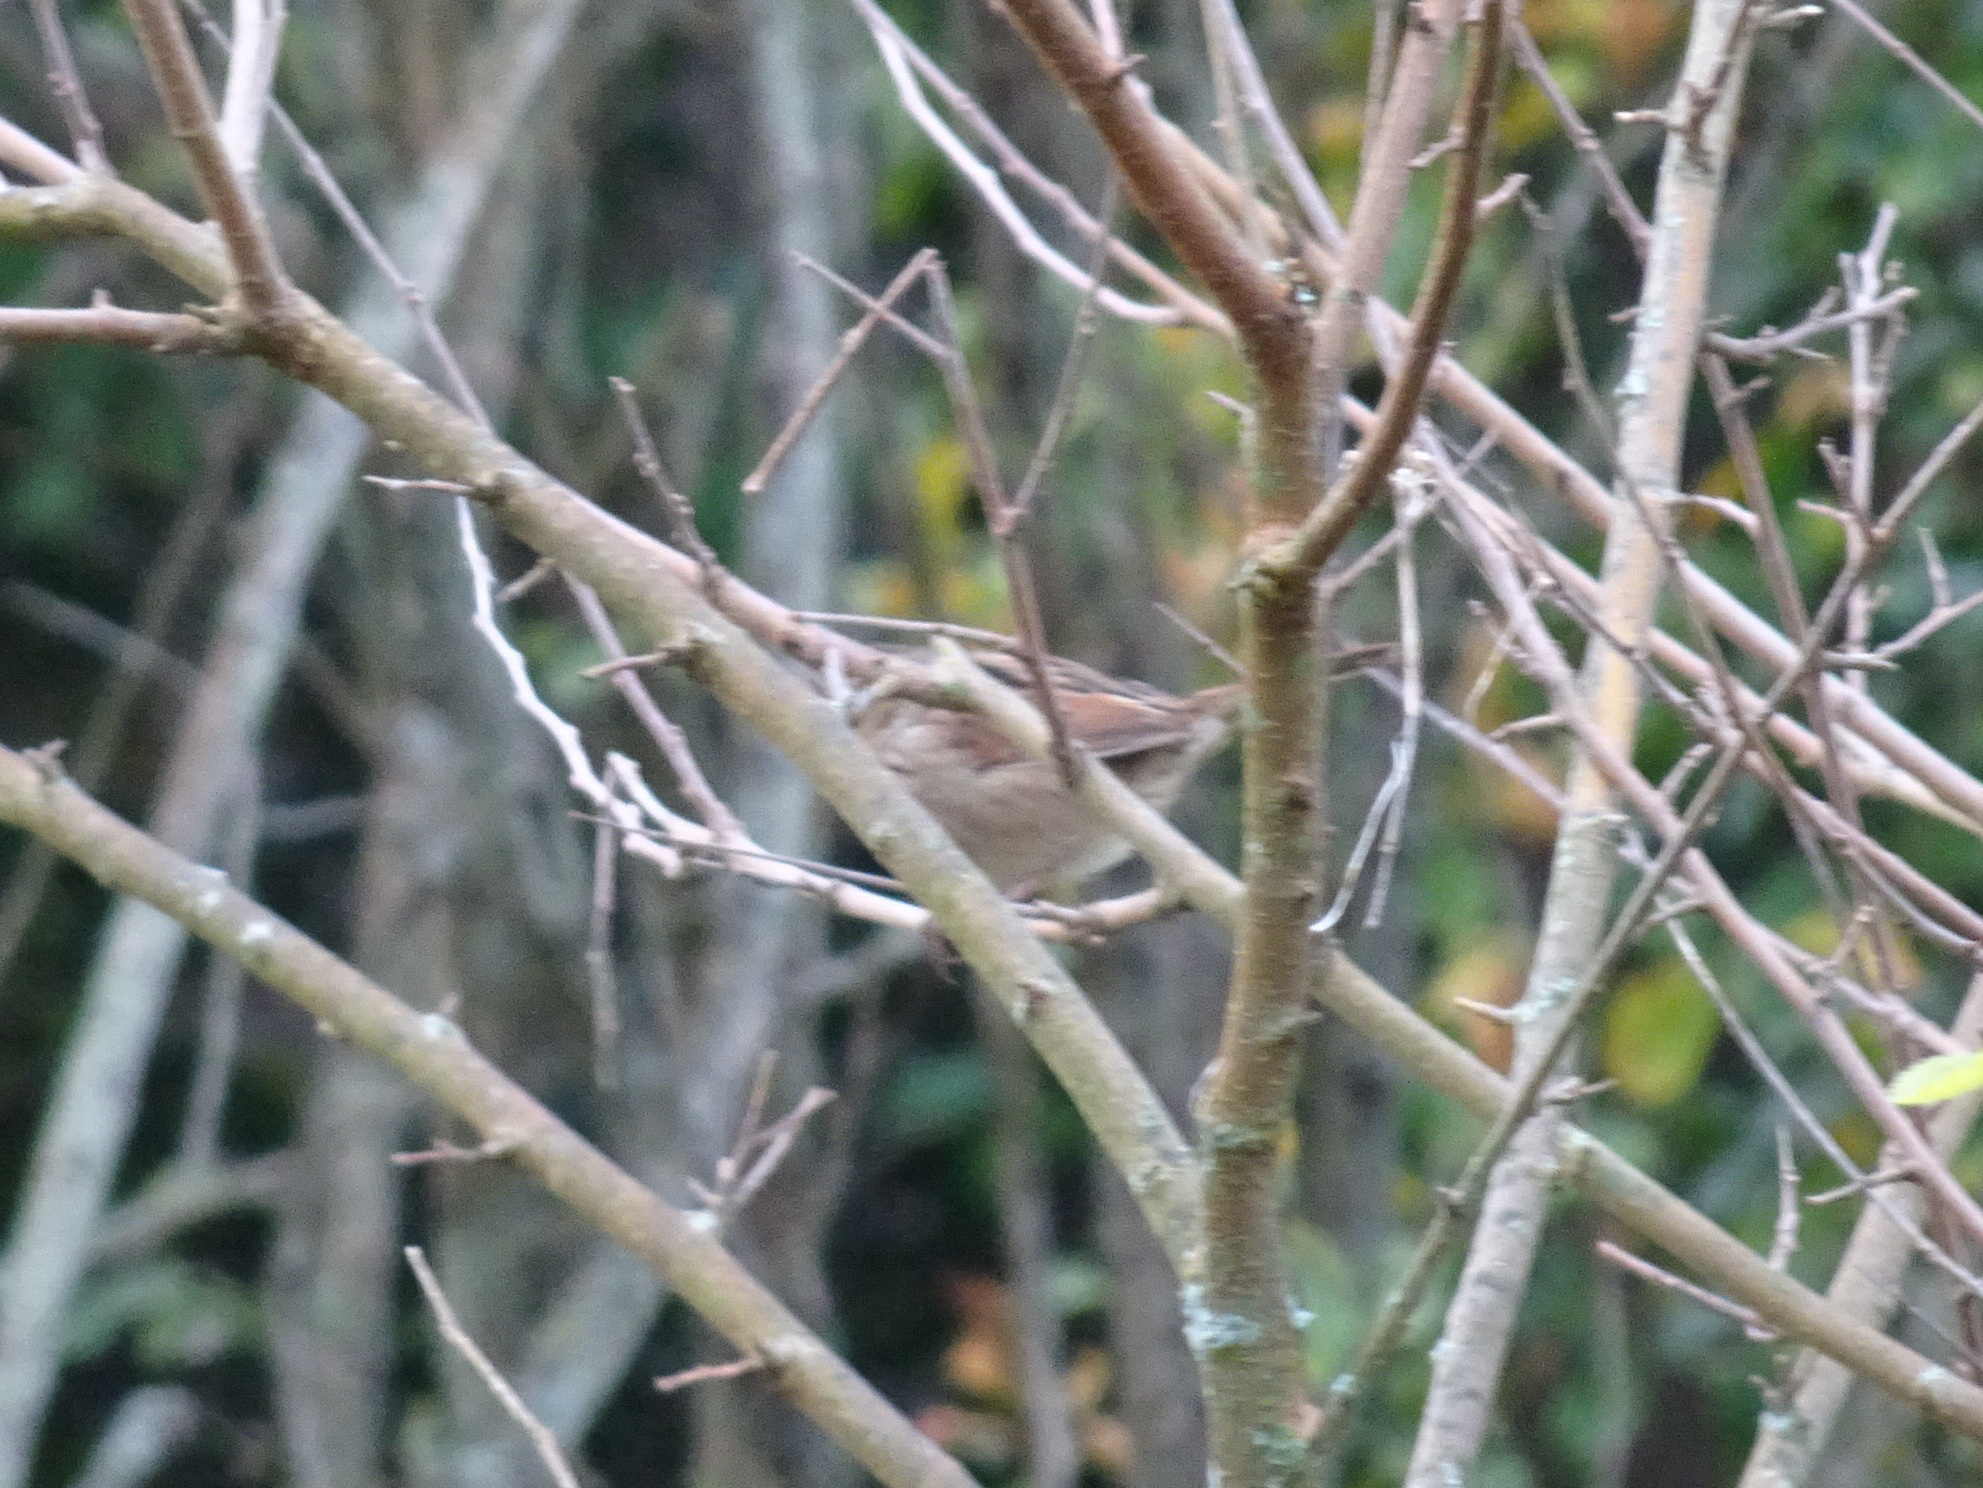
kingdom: Animalia
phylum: Chordata
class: Aves
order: Passeriformes
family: Passerellidae
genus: Melospiza
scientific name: Melospiza georgiana
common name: Swamp sparrow
